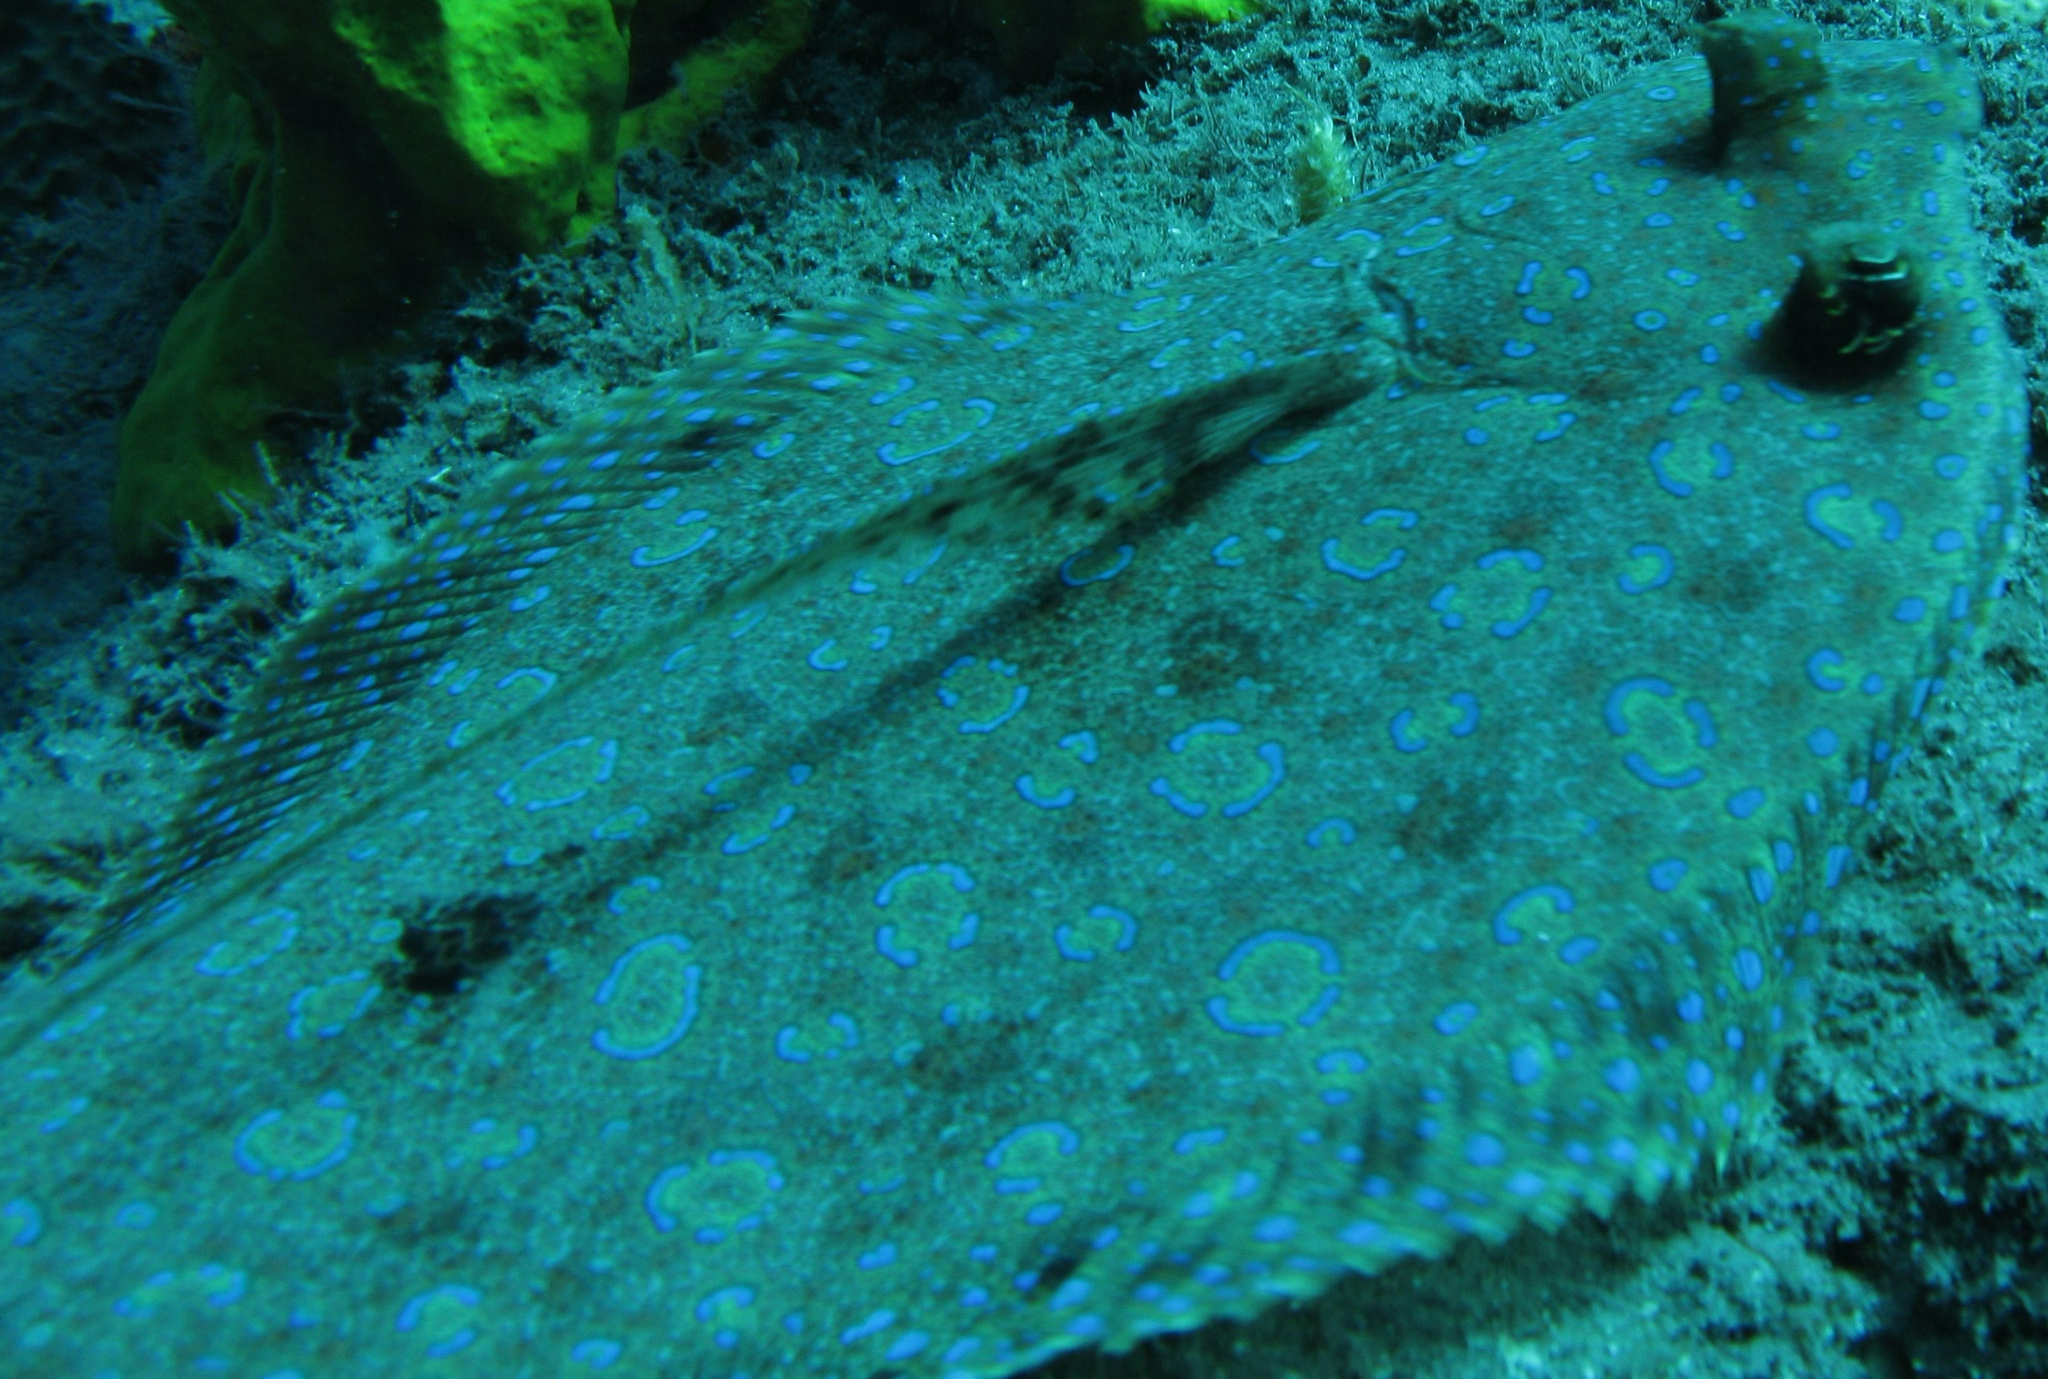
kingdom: Animalia
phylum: Chordata
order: Pleuronectiformes
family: Bothidae
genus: Bothus
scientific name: Bothus lunatus
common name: Peacock flounder
